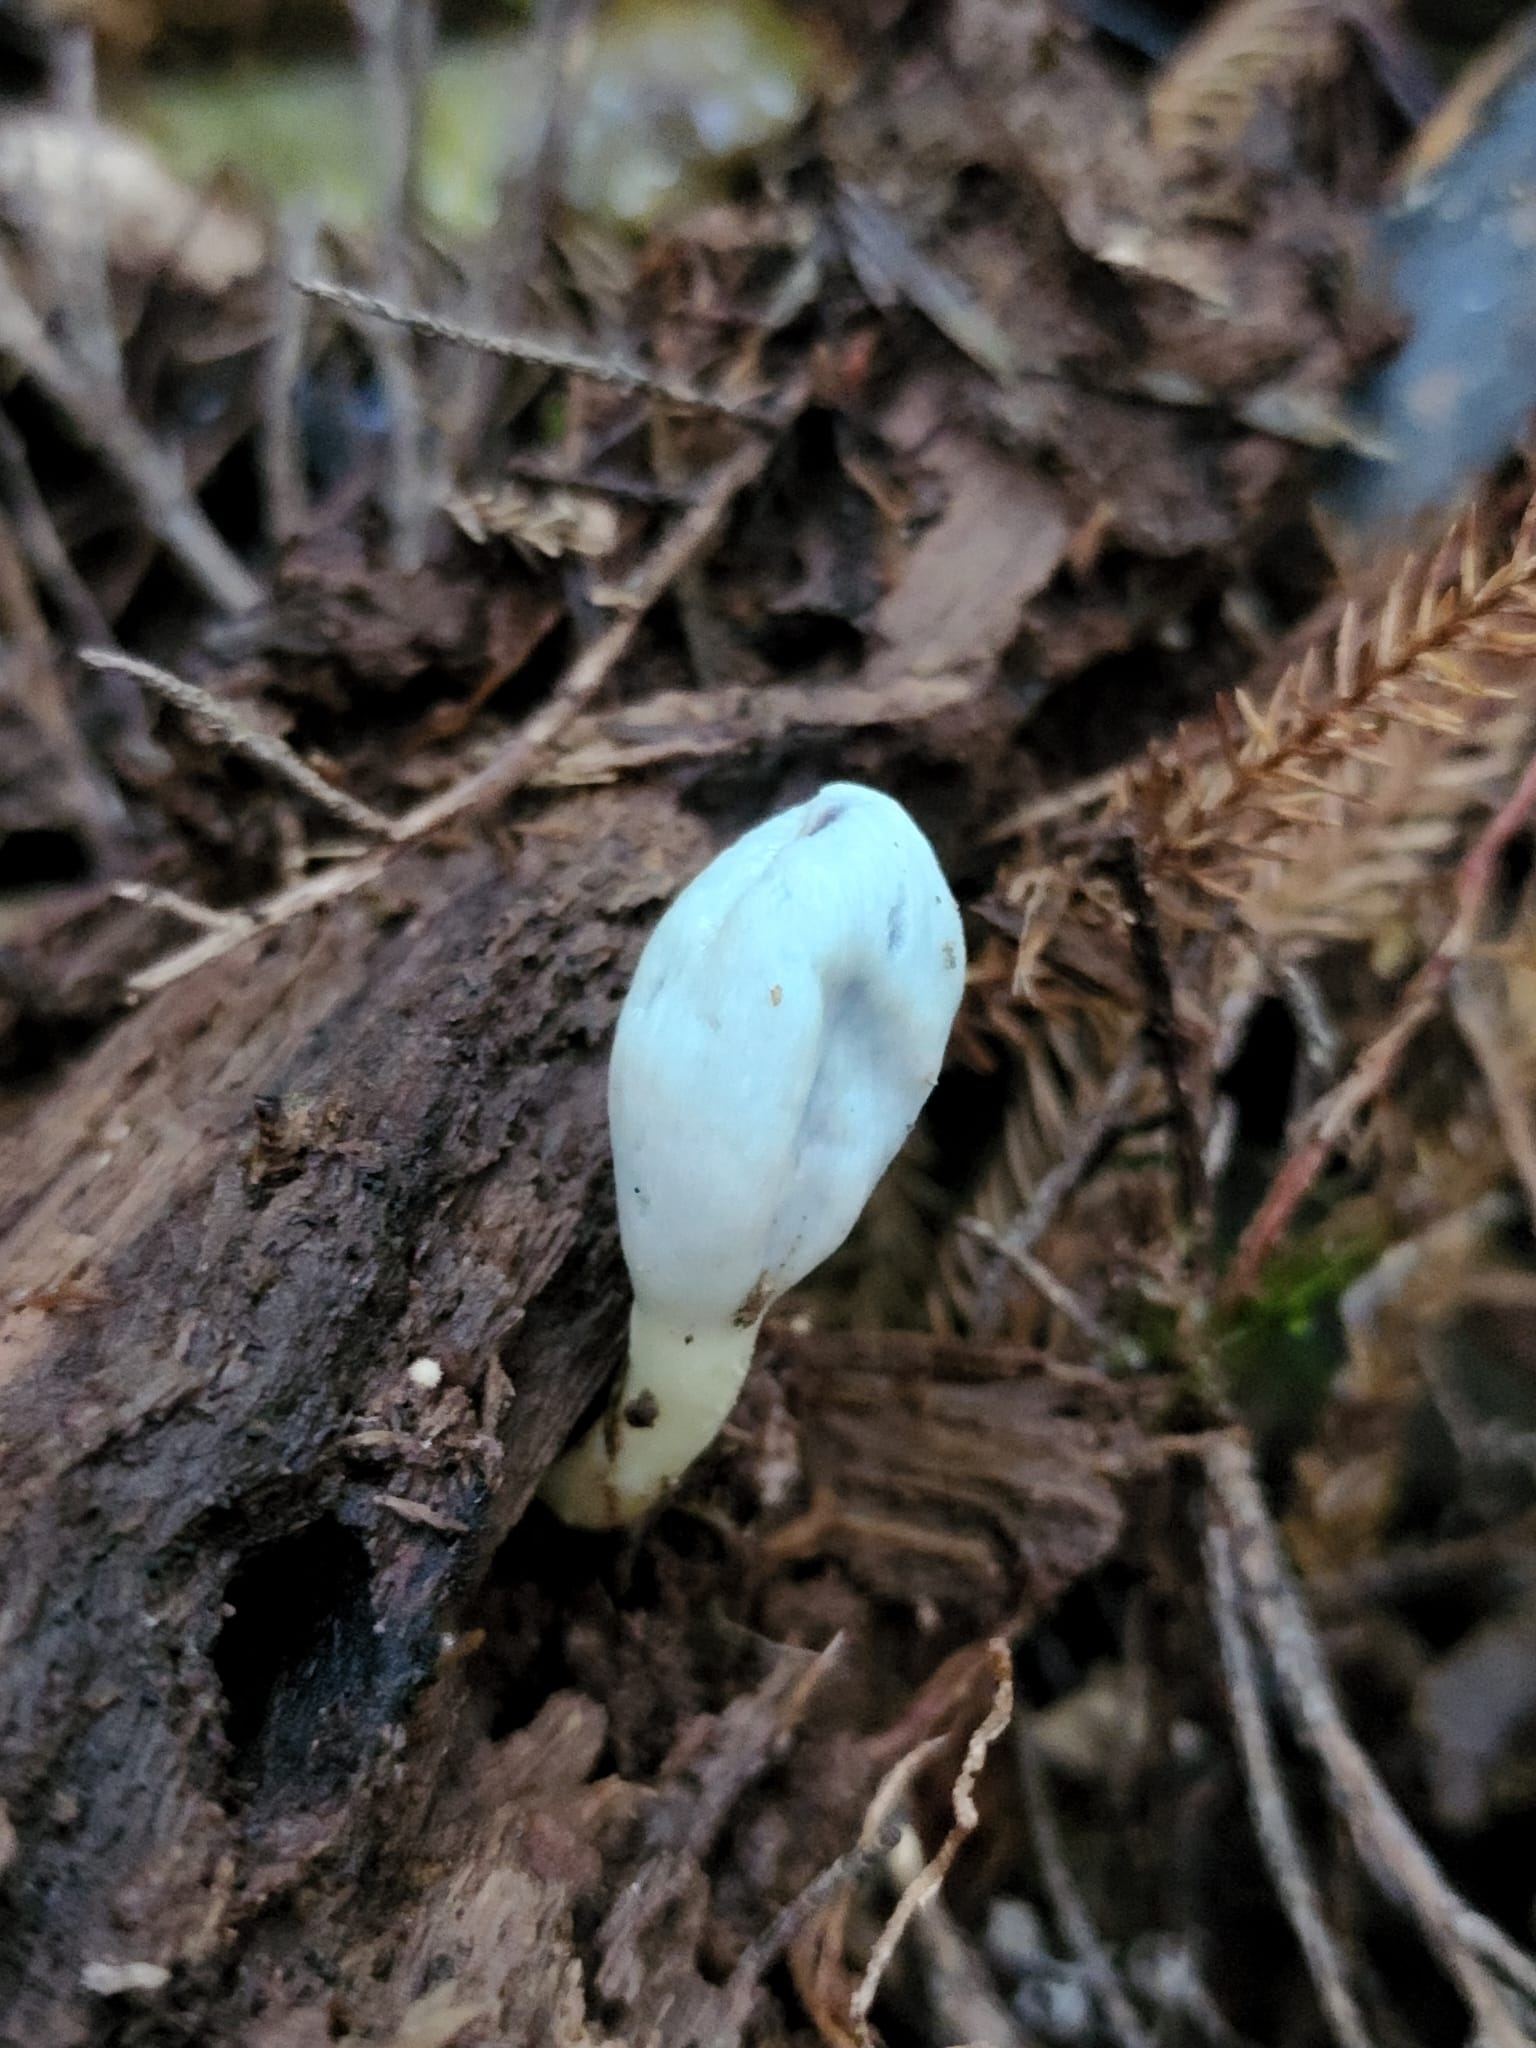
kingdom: Fungi
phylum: Basidiomycota
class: Agaricomycetes
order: Agaricales
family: Agaricaceae
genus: Clavogaster
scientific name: Clavogaster virescens
